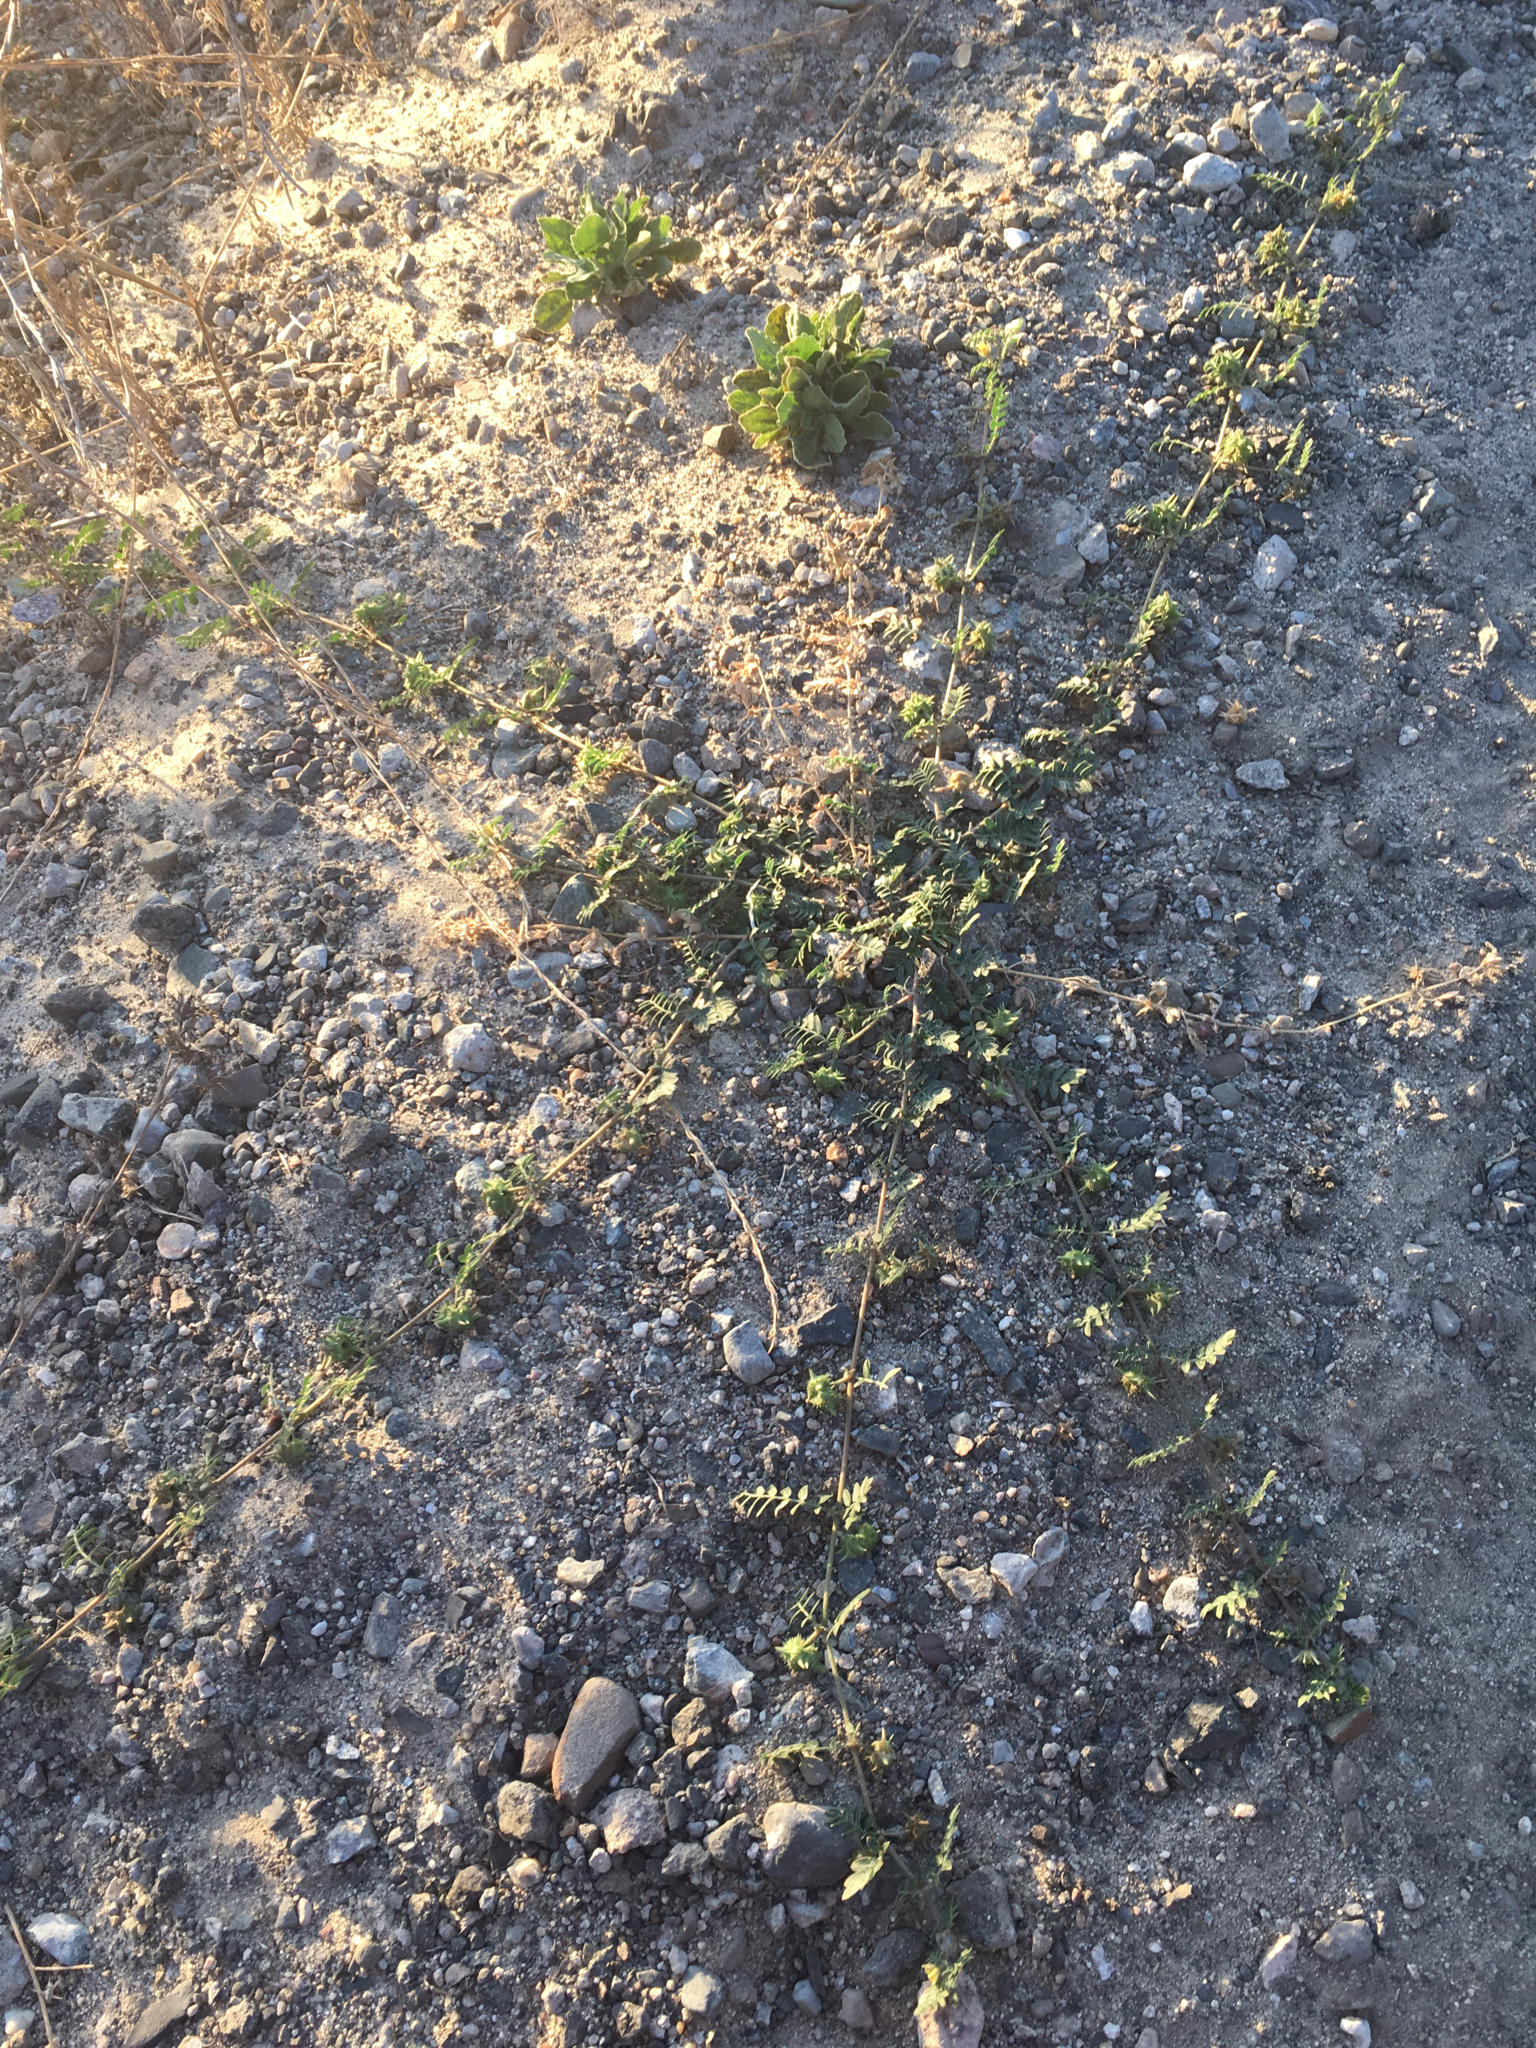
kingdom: Plantae
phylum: Tracheophyta
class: Magnoliopsida
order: Zygophyllales
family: Zygophyllaceae
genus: Tribulus
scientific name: Tribulus terrestris
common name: Puncturevine
